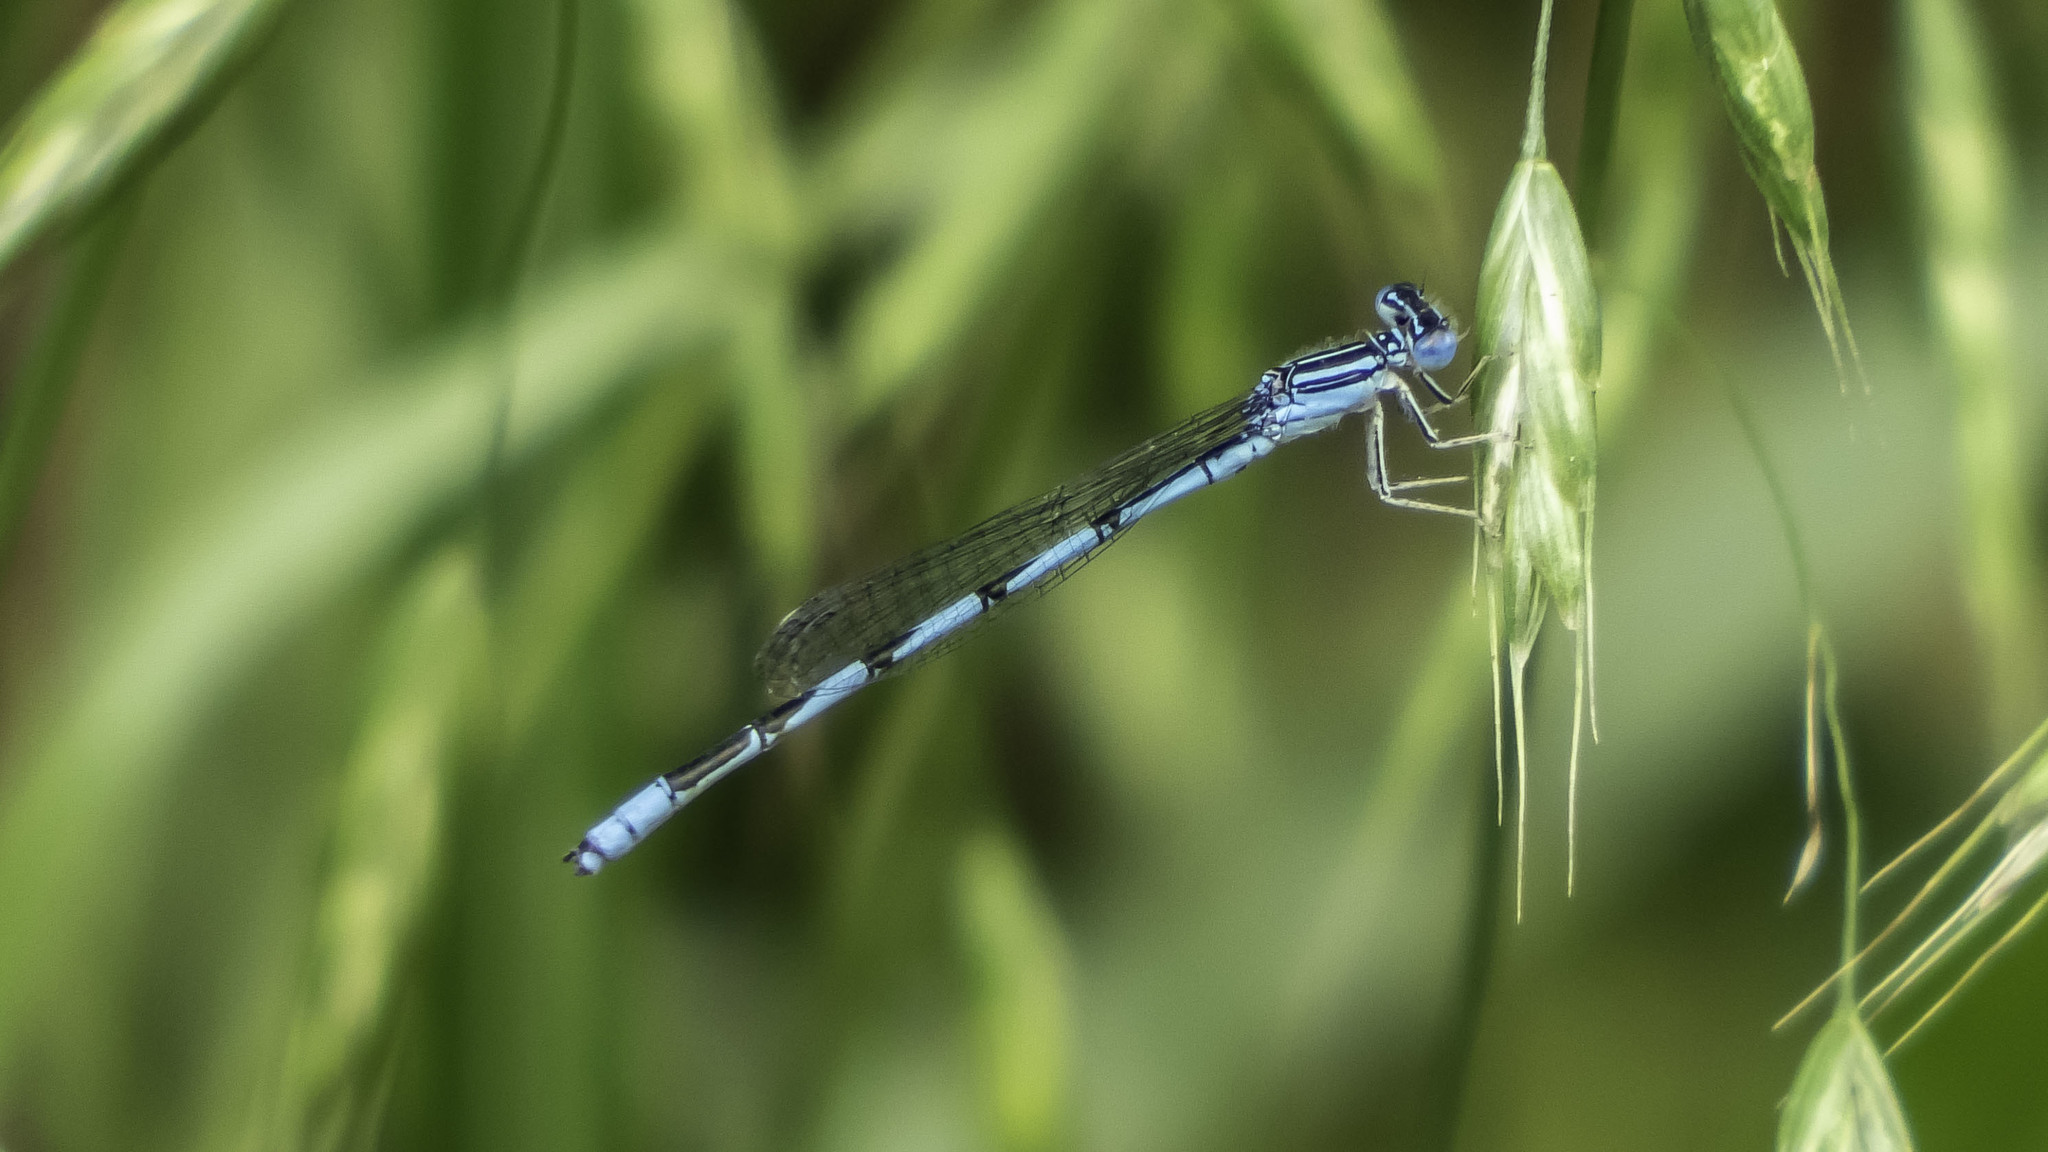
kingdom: Animalia
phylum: Arthropoda
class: Insecta
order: Odonata
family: Coenagrionidae
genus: Enallagma
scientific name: Enallagma basidens
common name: Double-striped bluet
